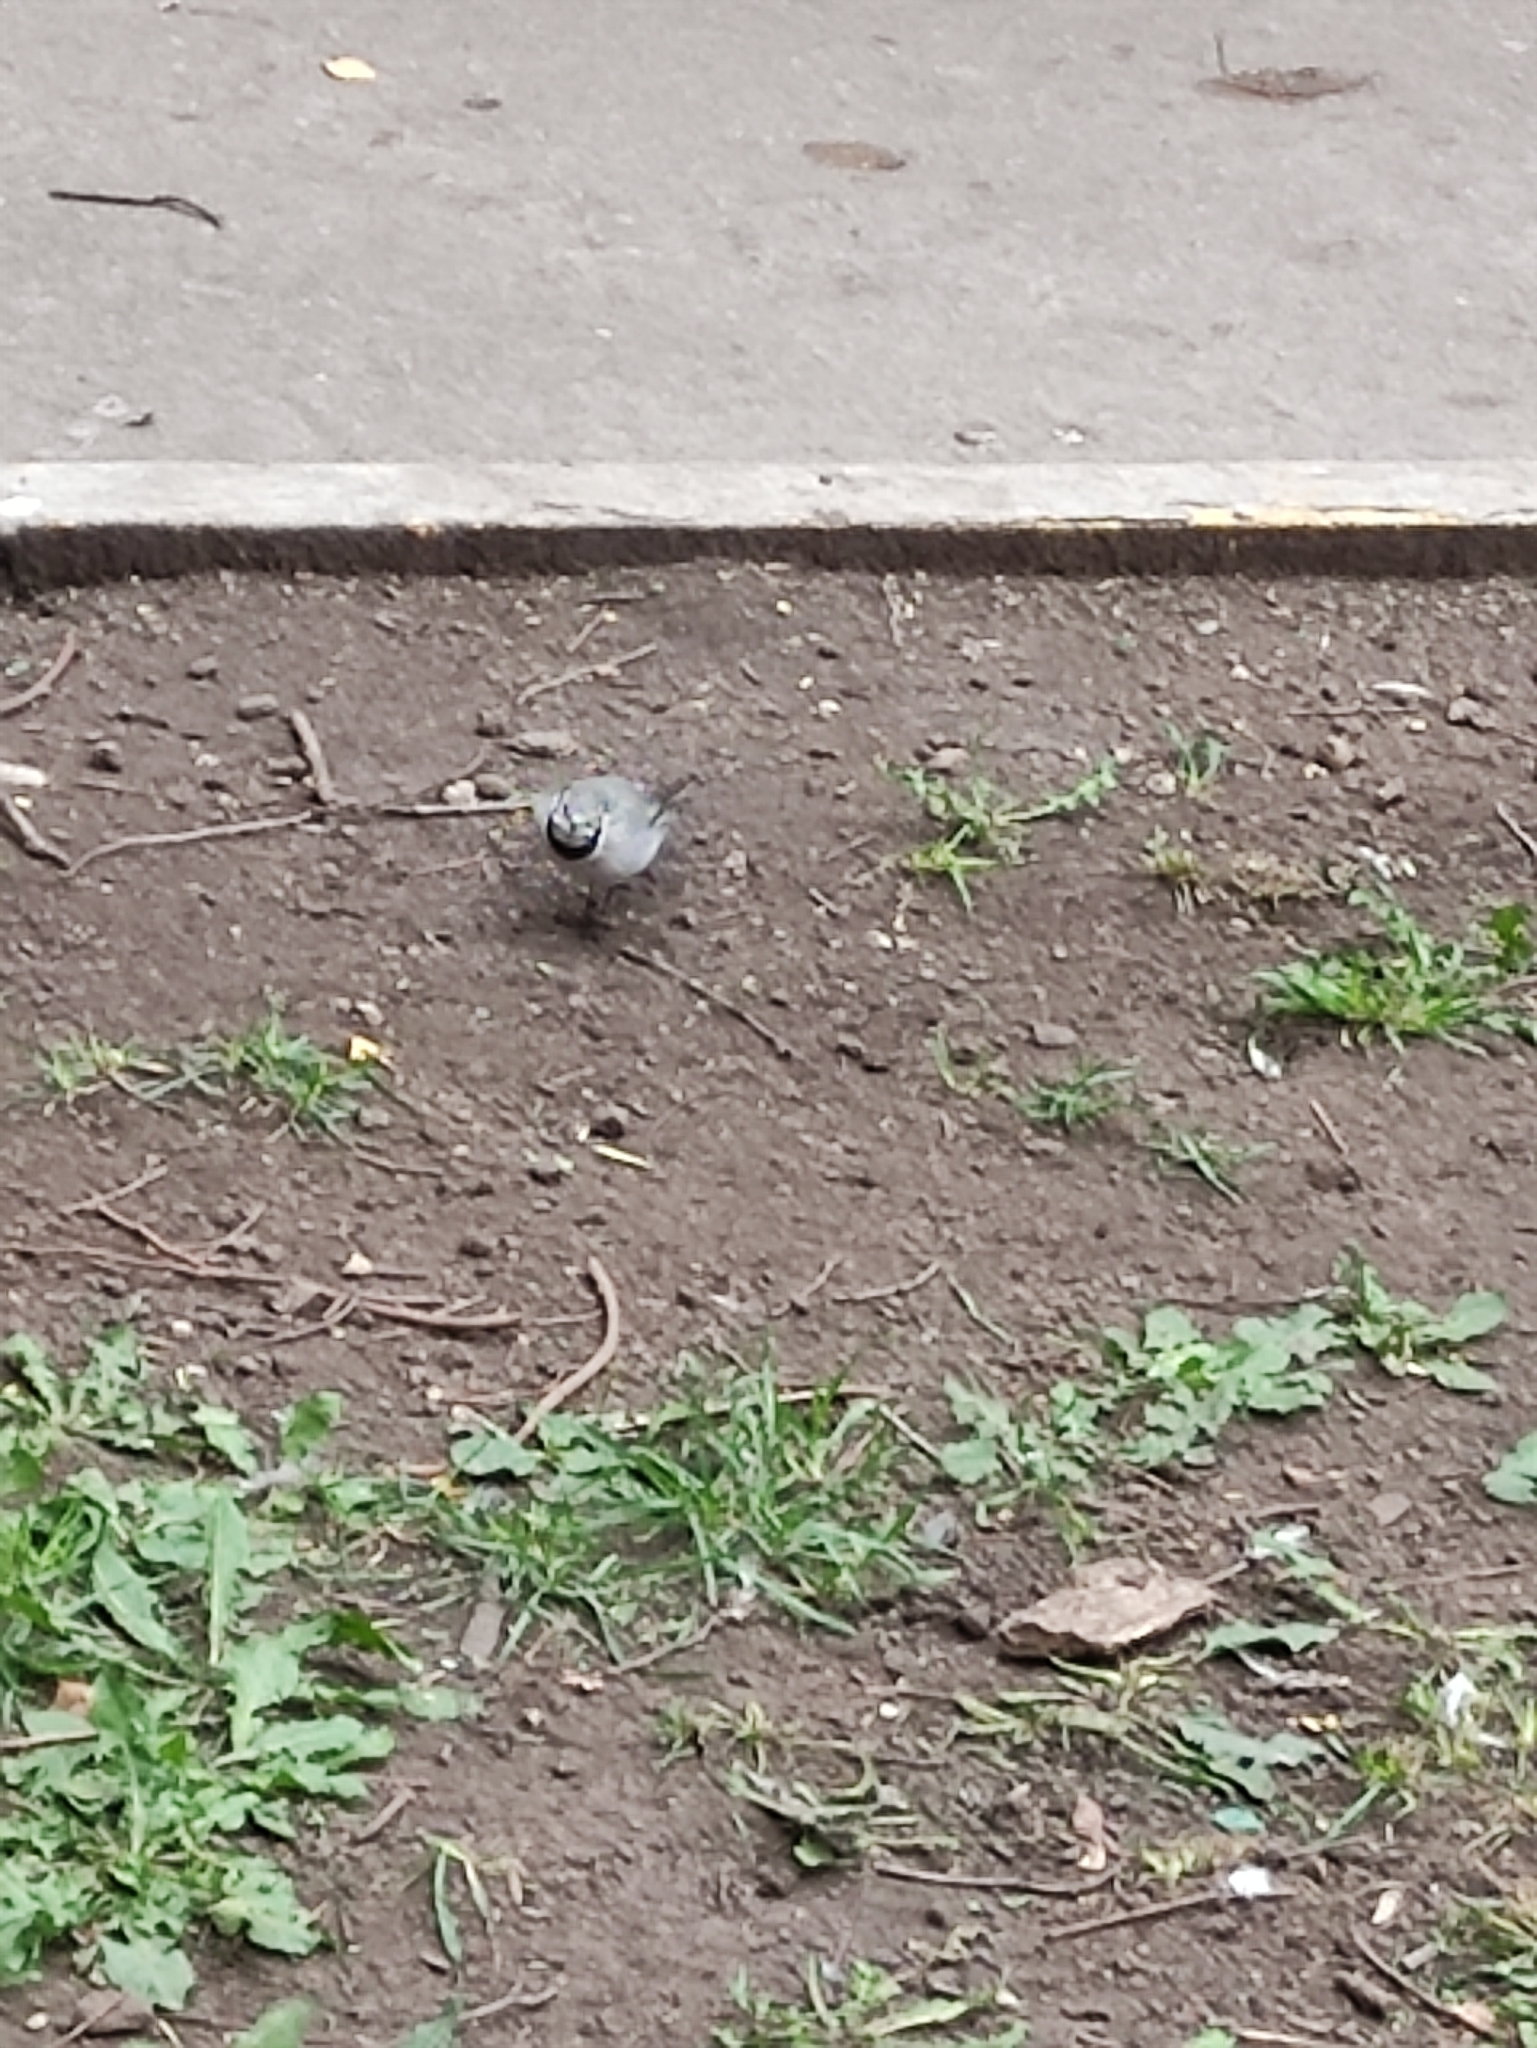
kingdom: Animalia
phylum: Chordata
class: Aves
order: Passeriformes
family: Motacillidae
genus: Motacilla
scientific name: Motacilla alba
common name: White wagtail
